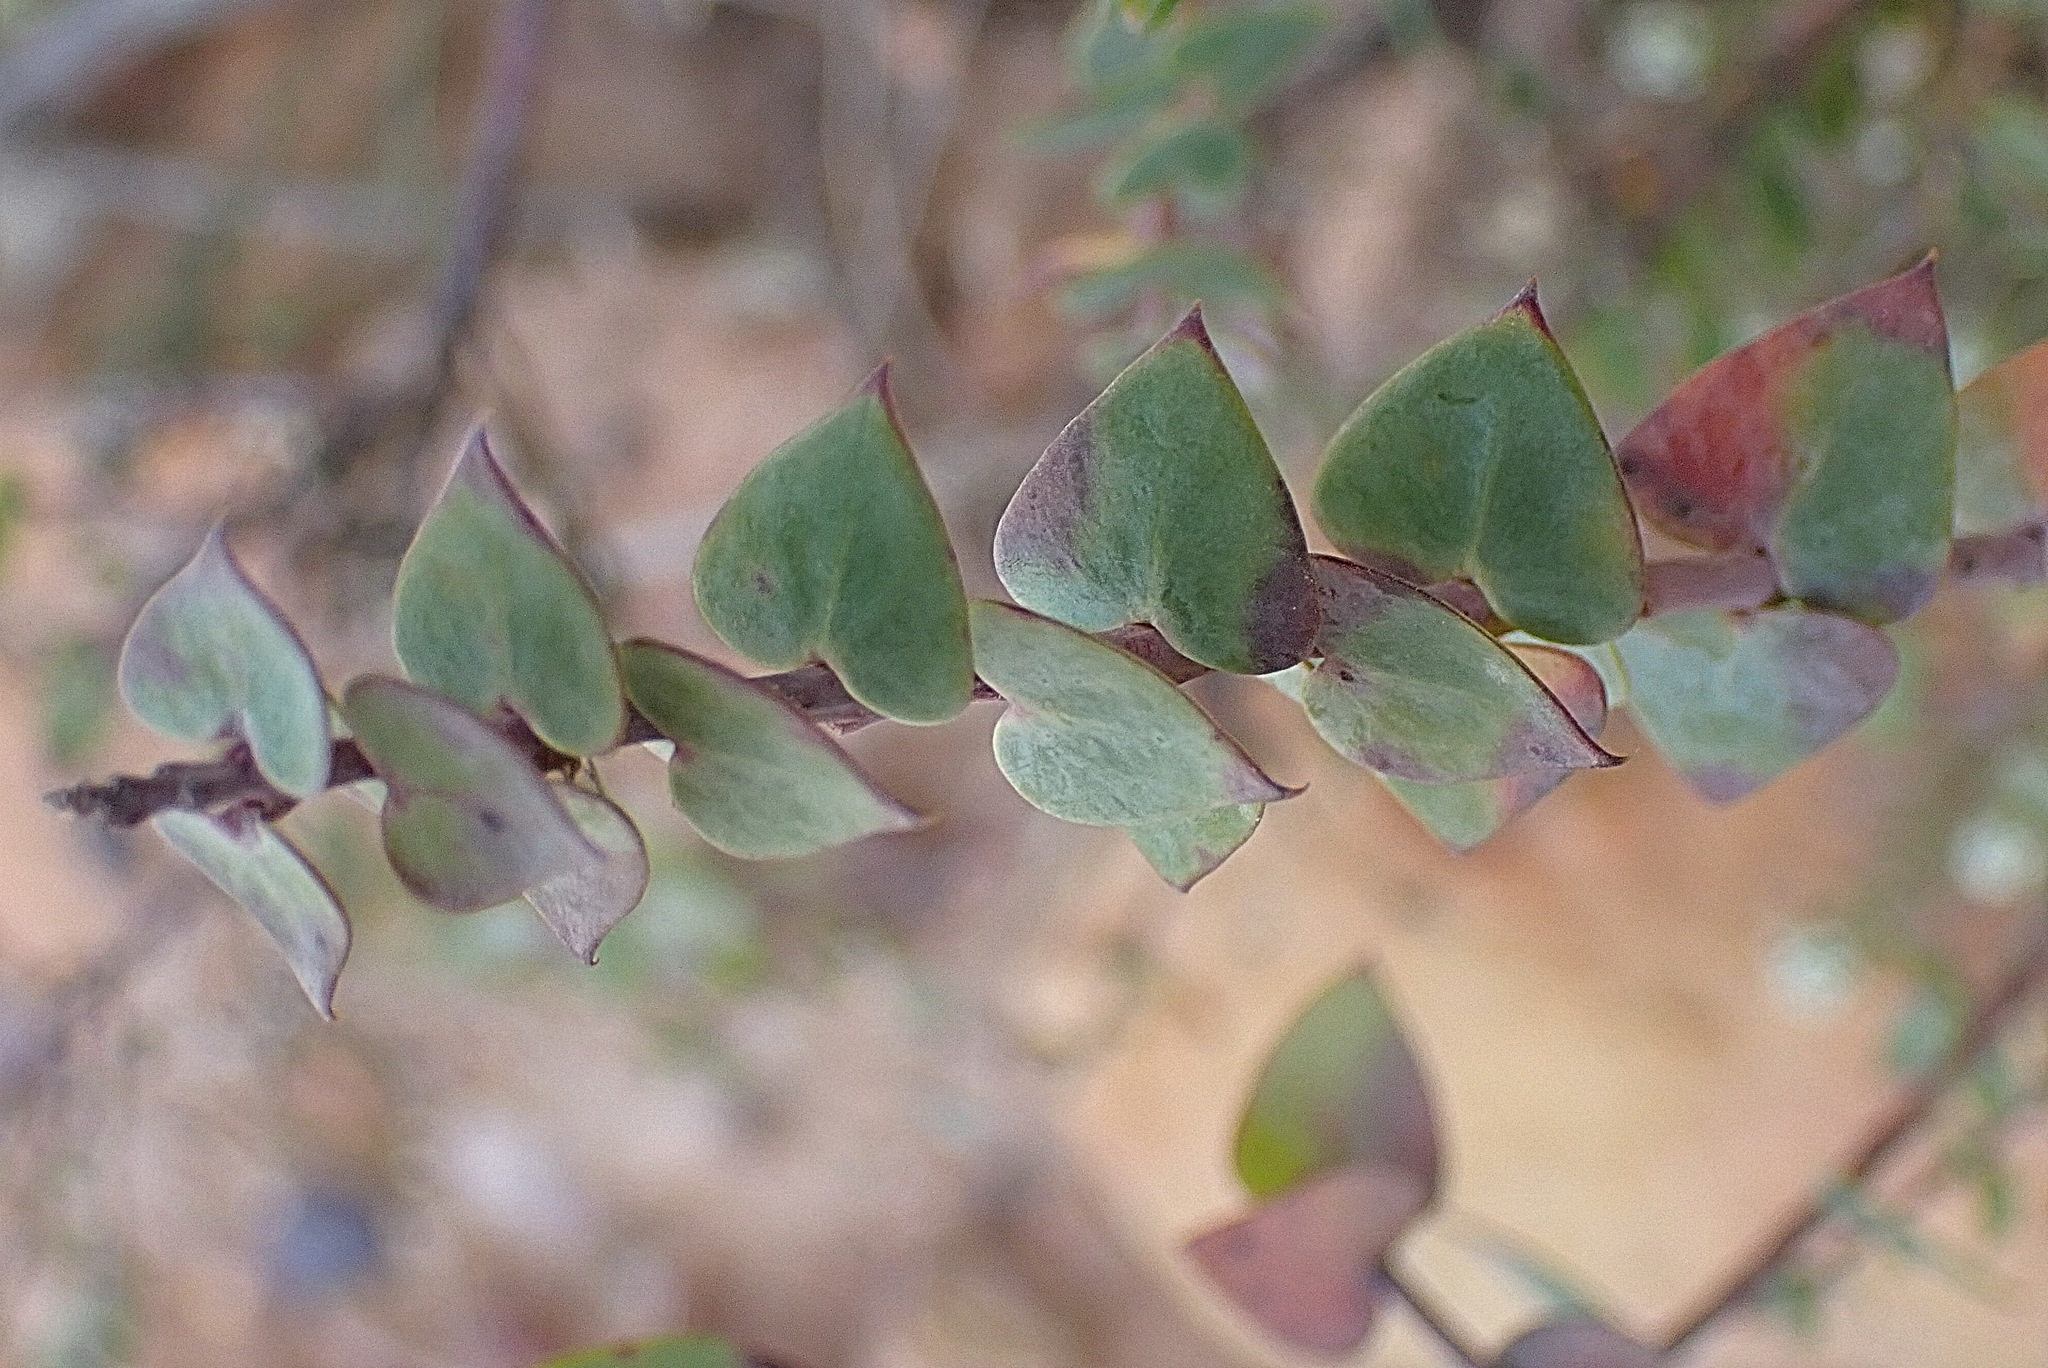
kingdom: Plantae
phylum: Tracheophyta
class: Magnoliopsida
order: Fabales
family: Polygalaceae
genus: Polygala
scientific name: Polygala fruticosa
